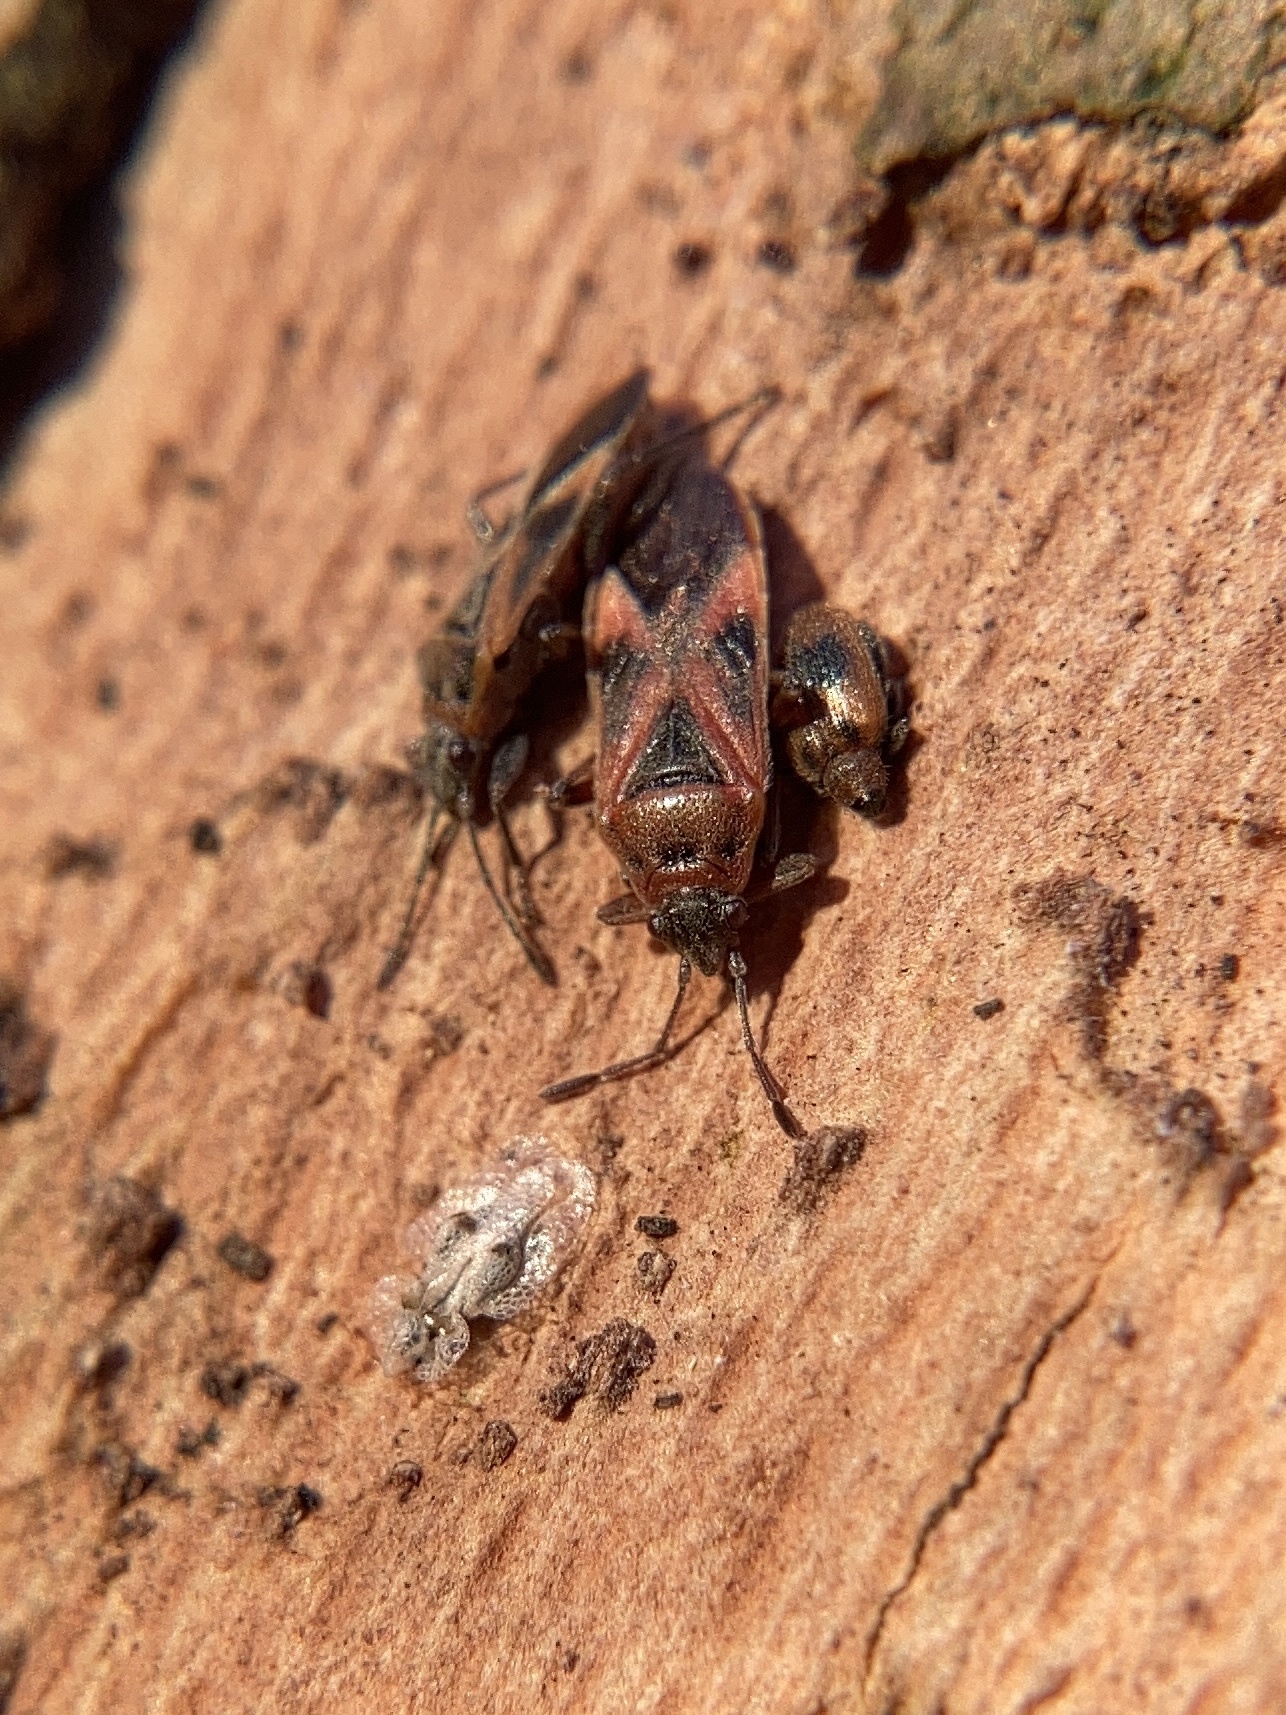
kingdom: Animalia
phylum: Arthropoda
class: Insecta
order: Hemiptera
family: Lygaeidae
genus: Arocatus
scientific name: Arocatus roeselii
